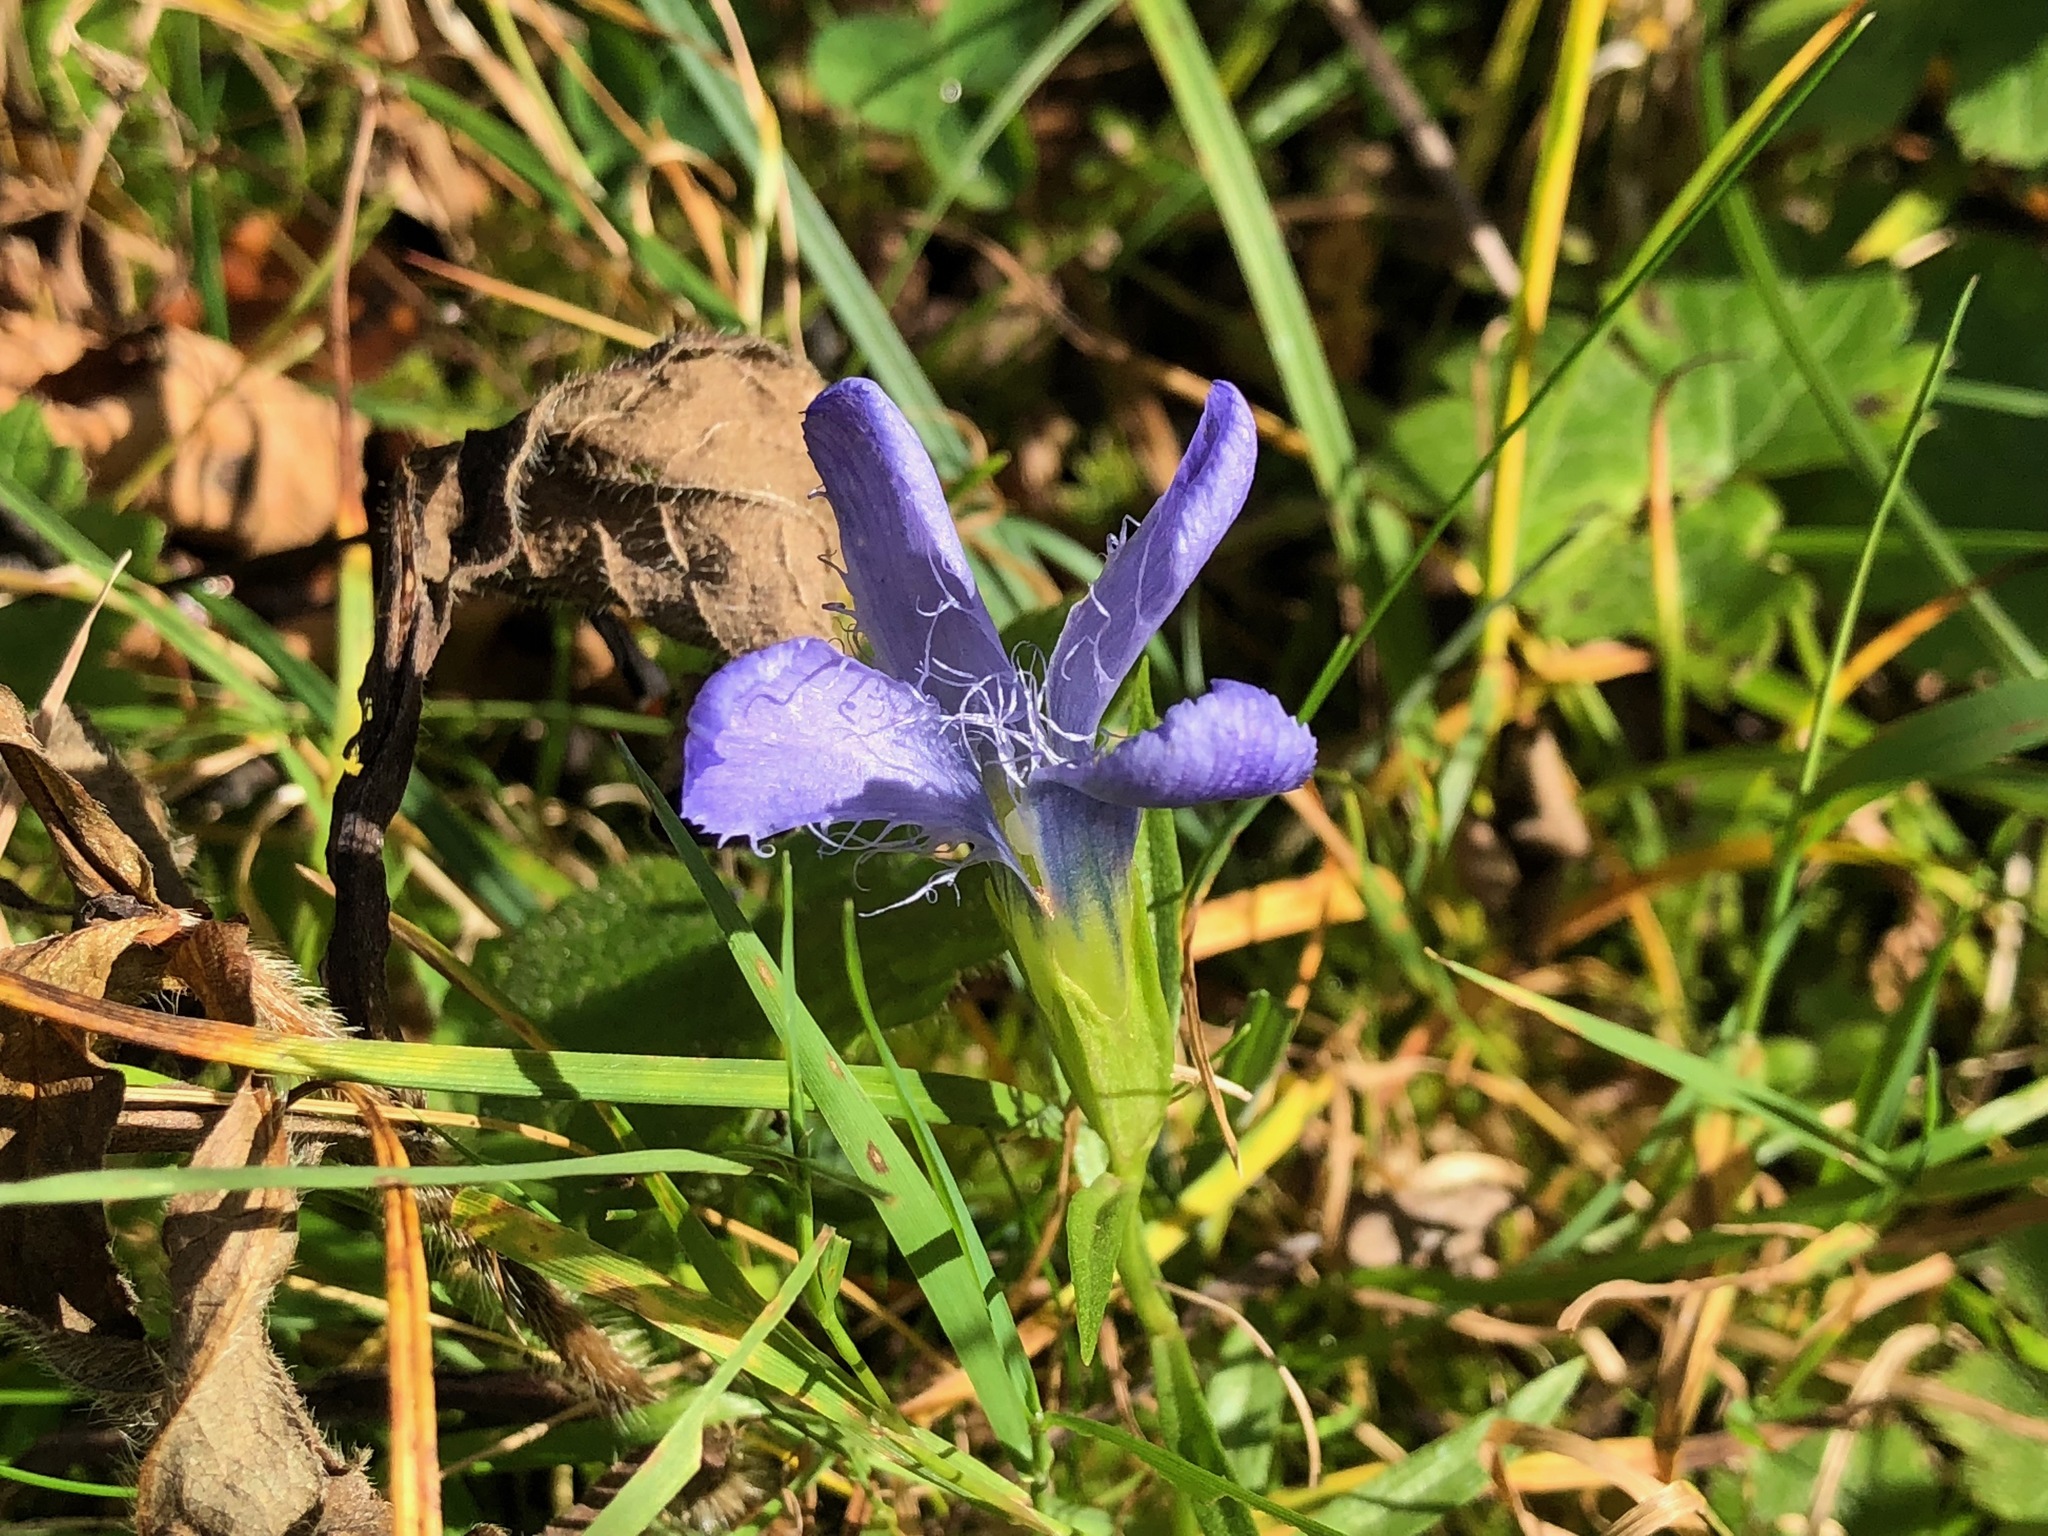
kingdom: Plantae
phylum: Tracheophyta
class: Magnoliopsida
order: Gentianales
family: Gentianaceae
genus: Gentianopsis
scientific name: Gentianopsis ciliata
